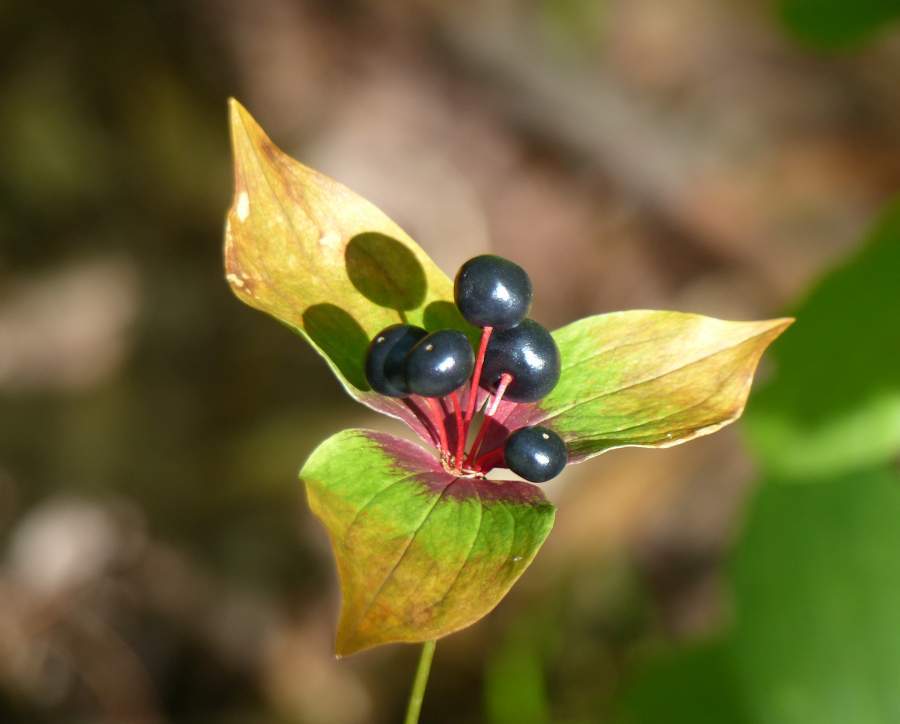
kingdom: Plantae
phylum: Tracheophyta
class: Liliopsida
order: Liliales
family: Liliaceae
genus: Medeola
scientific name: Medeola virginiana
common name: Indian cucumber-root
